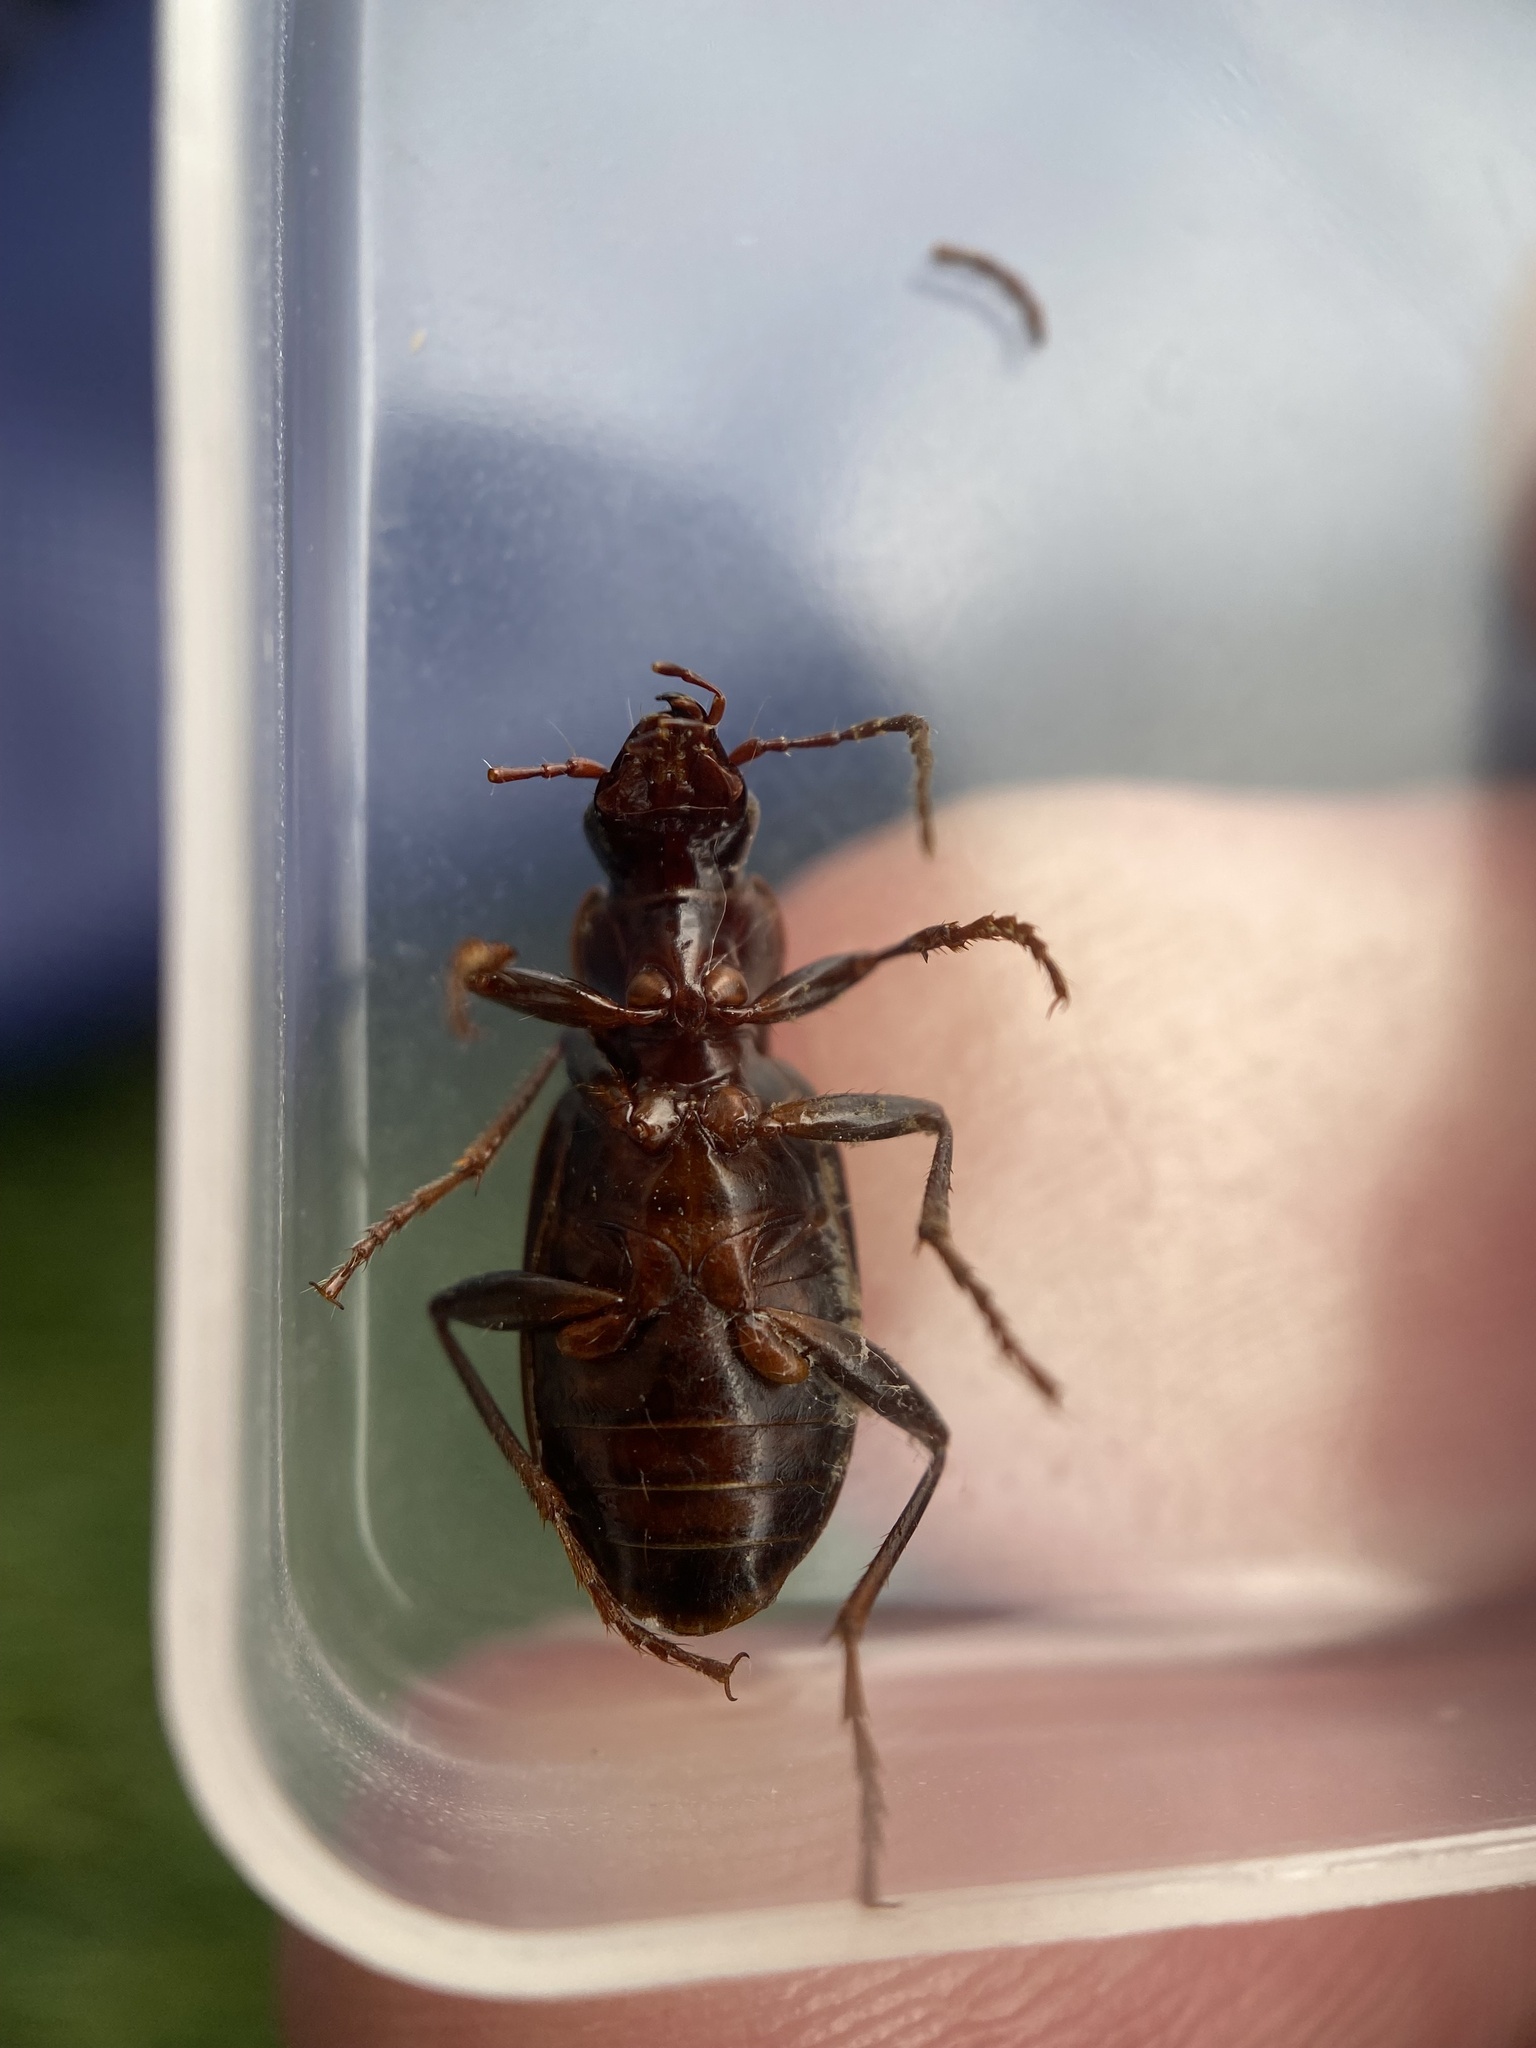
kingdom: Animalia
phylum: Arthropoda
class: Insecta
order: Coleoptera
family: Carabidae
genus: Laemostenus
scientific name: Laemostenus complanatus
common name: Cosmopolitan ground beetle
